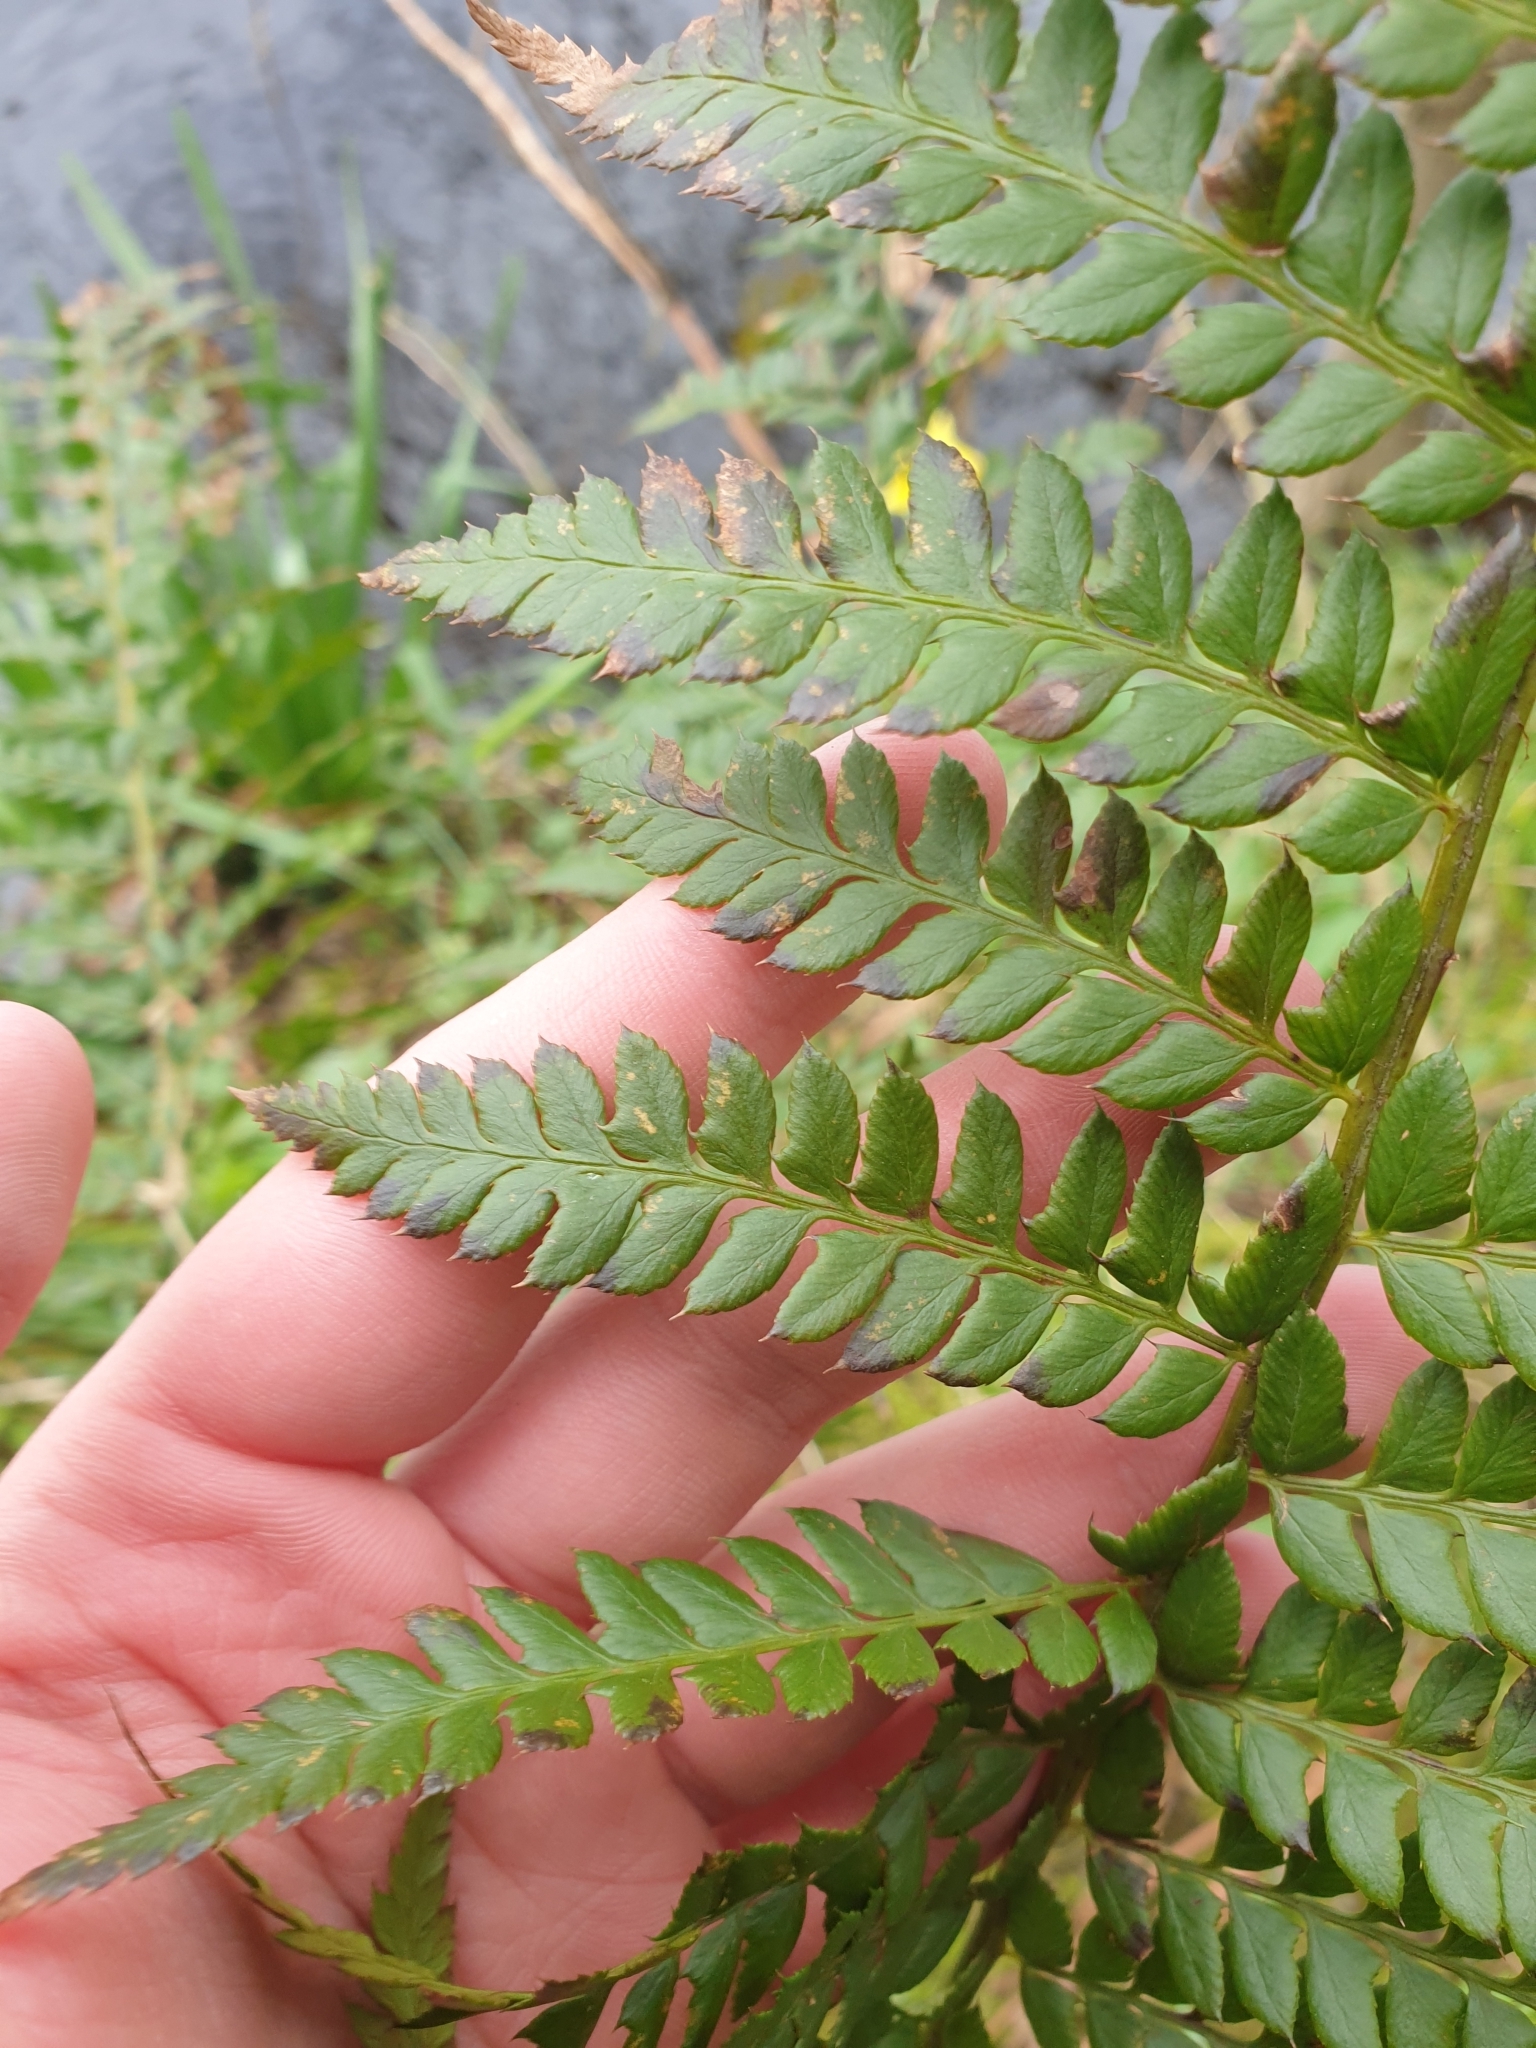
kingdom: Plantae
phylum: Tracheophyta
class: Polypodiopsida
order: Polypodiales
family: Dryopteridaceae
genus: Polystichum
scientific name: Polystichum aculeatum
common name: Hard shield-fern
